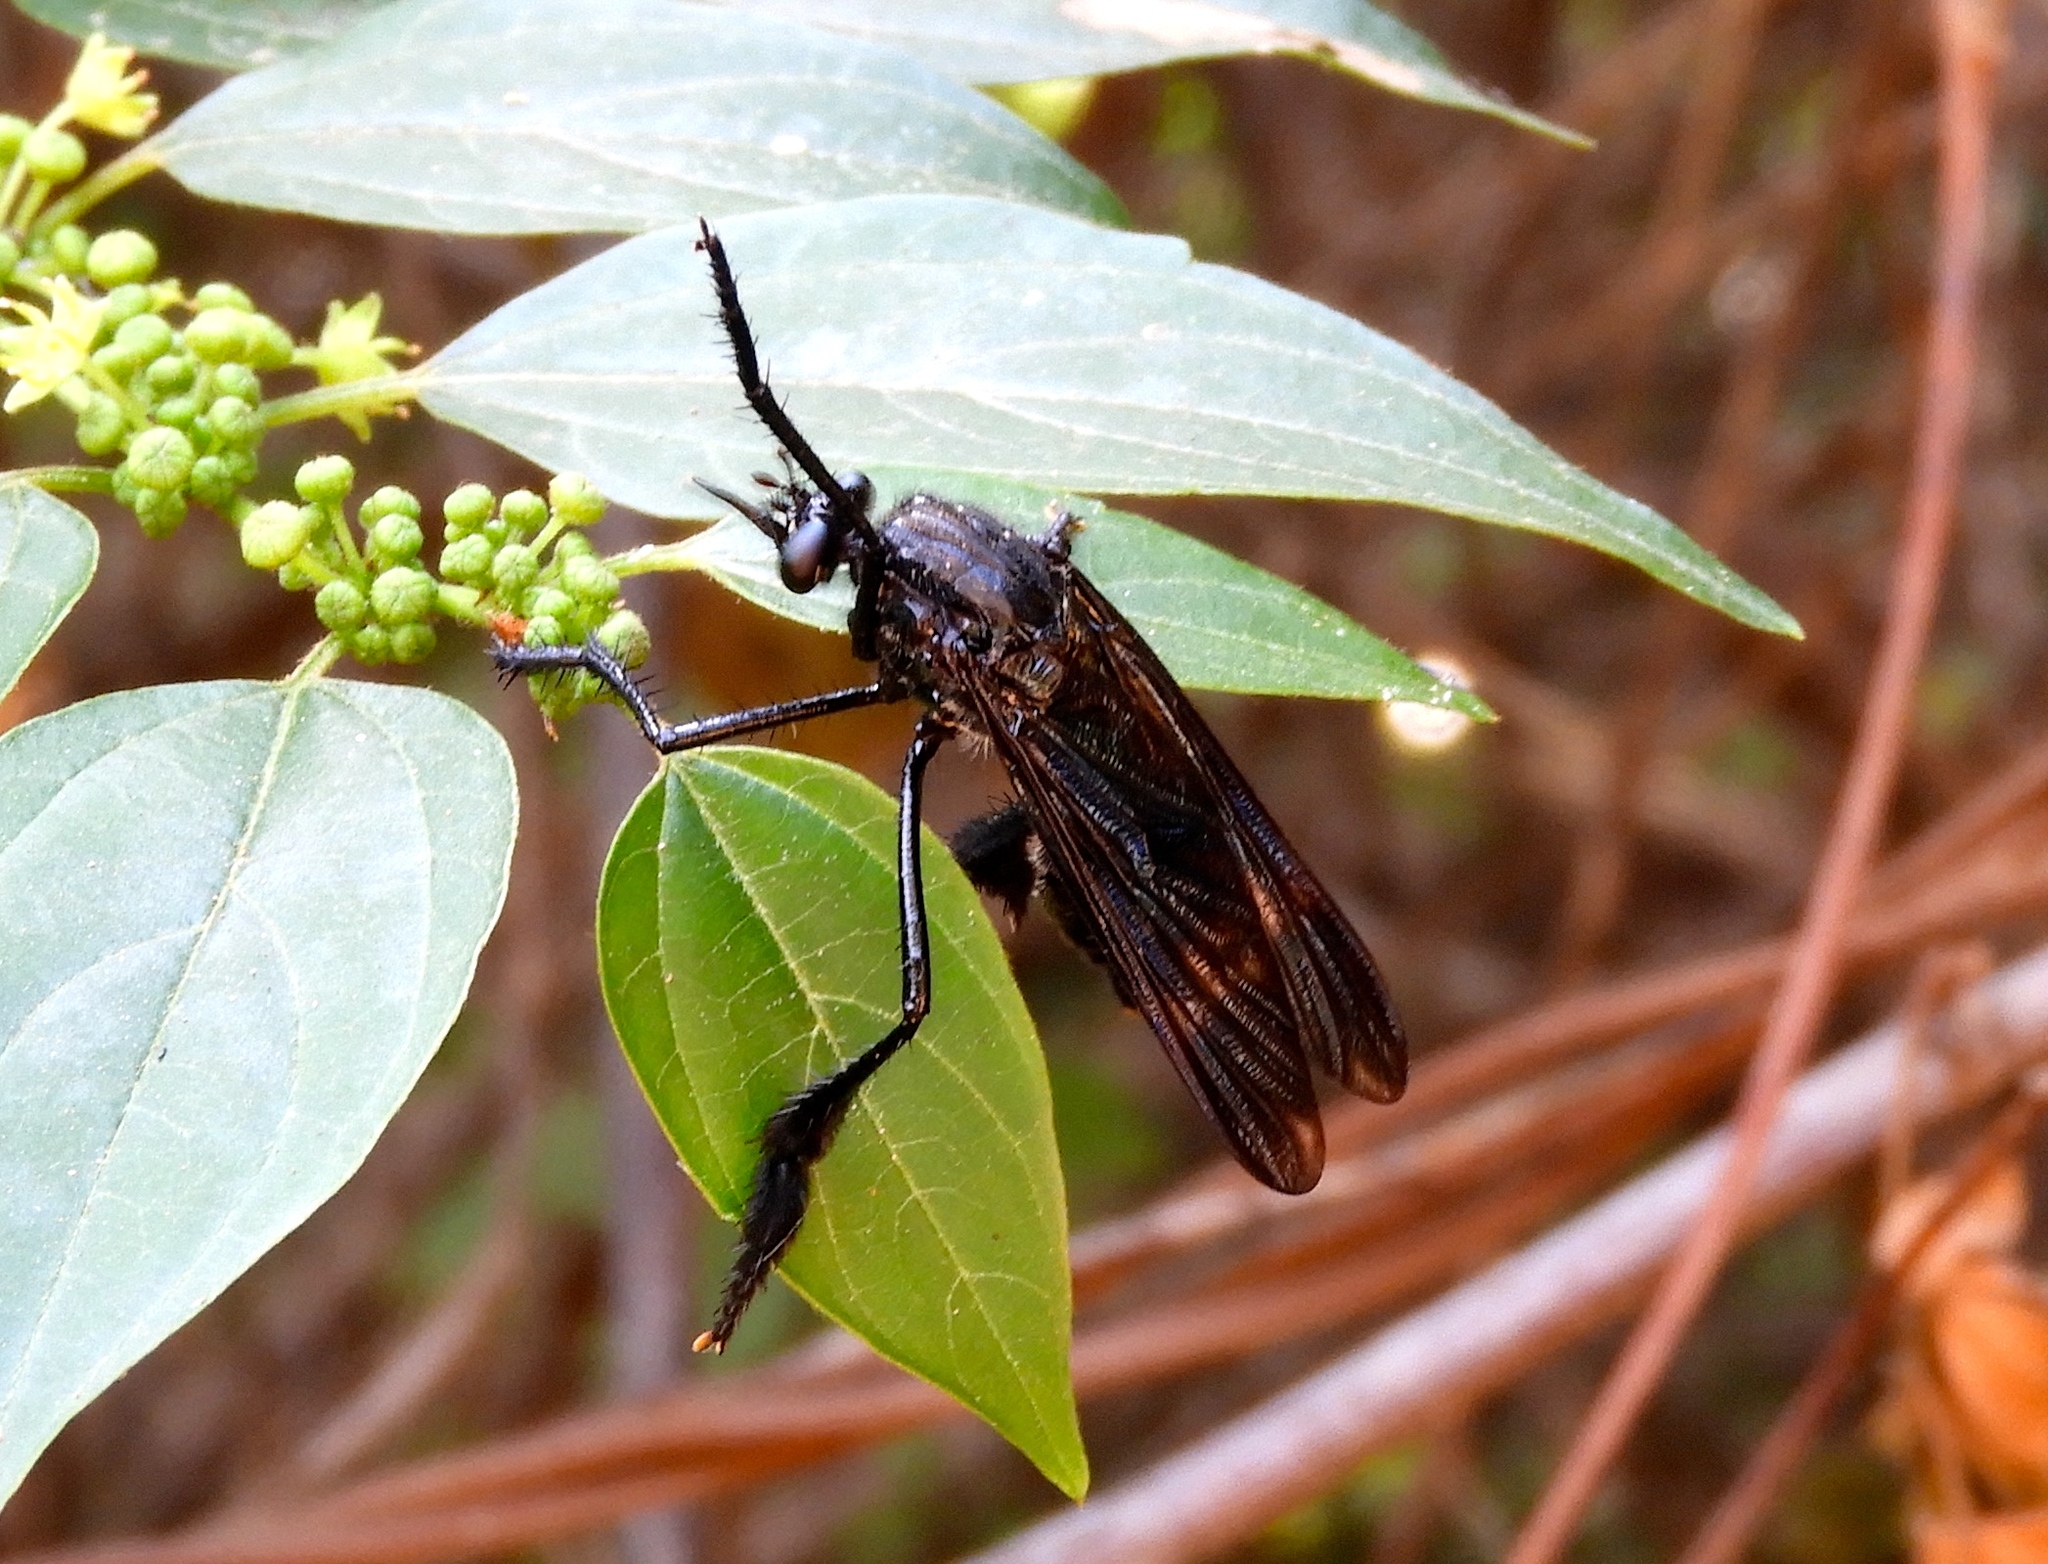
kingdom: Animalia
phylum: Arthropoda
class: Insecta
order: Diptera
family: Asilidae
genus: Pseudorus
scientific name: Pseudorus
